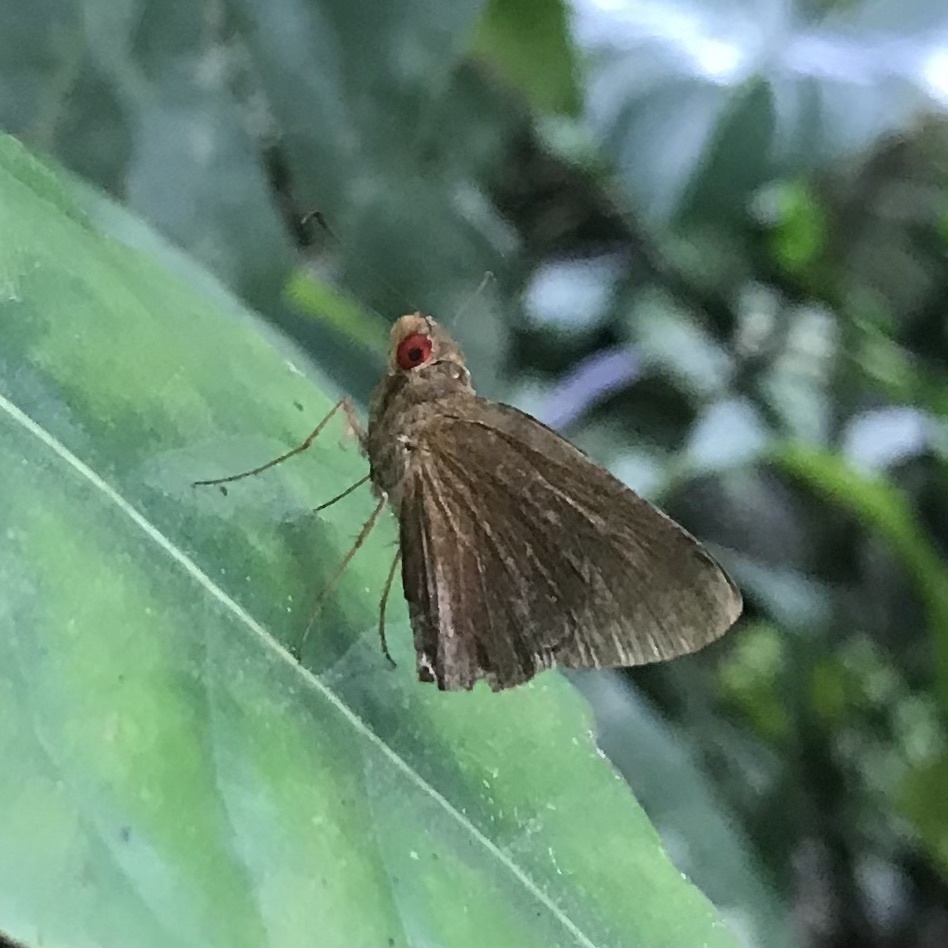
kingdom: Animalia
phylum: Arthropoda
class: Insecta
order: Lepidoptera
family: Hesperiidae
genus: Matapa
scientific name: Matapa aria
